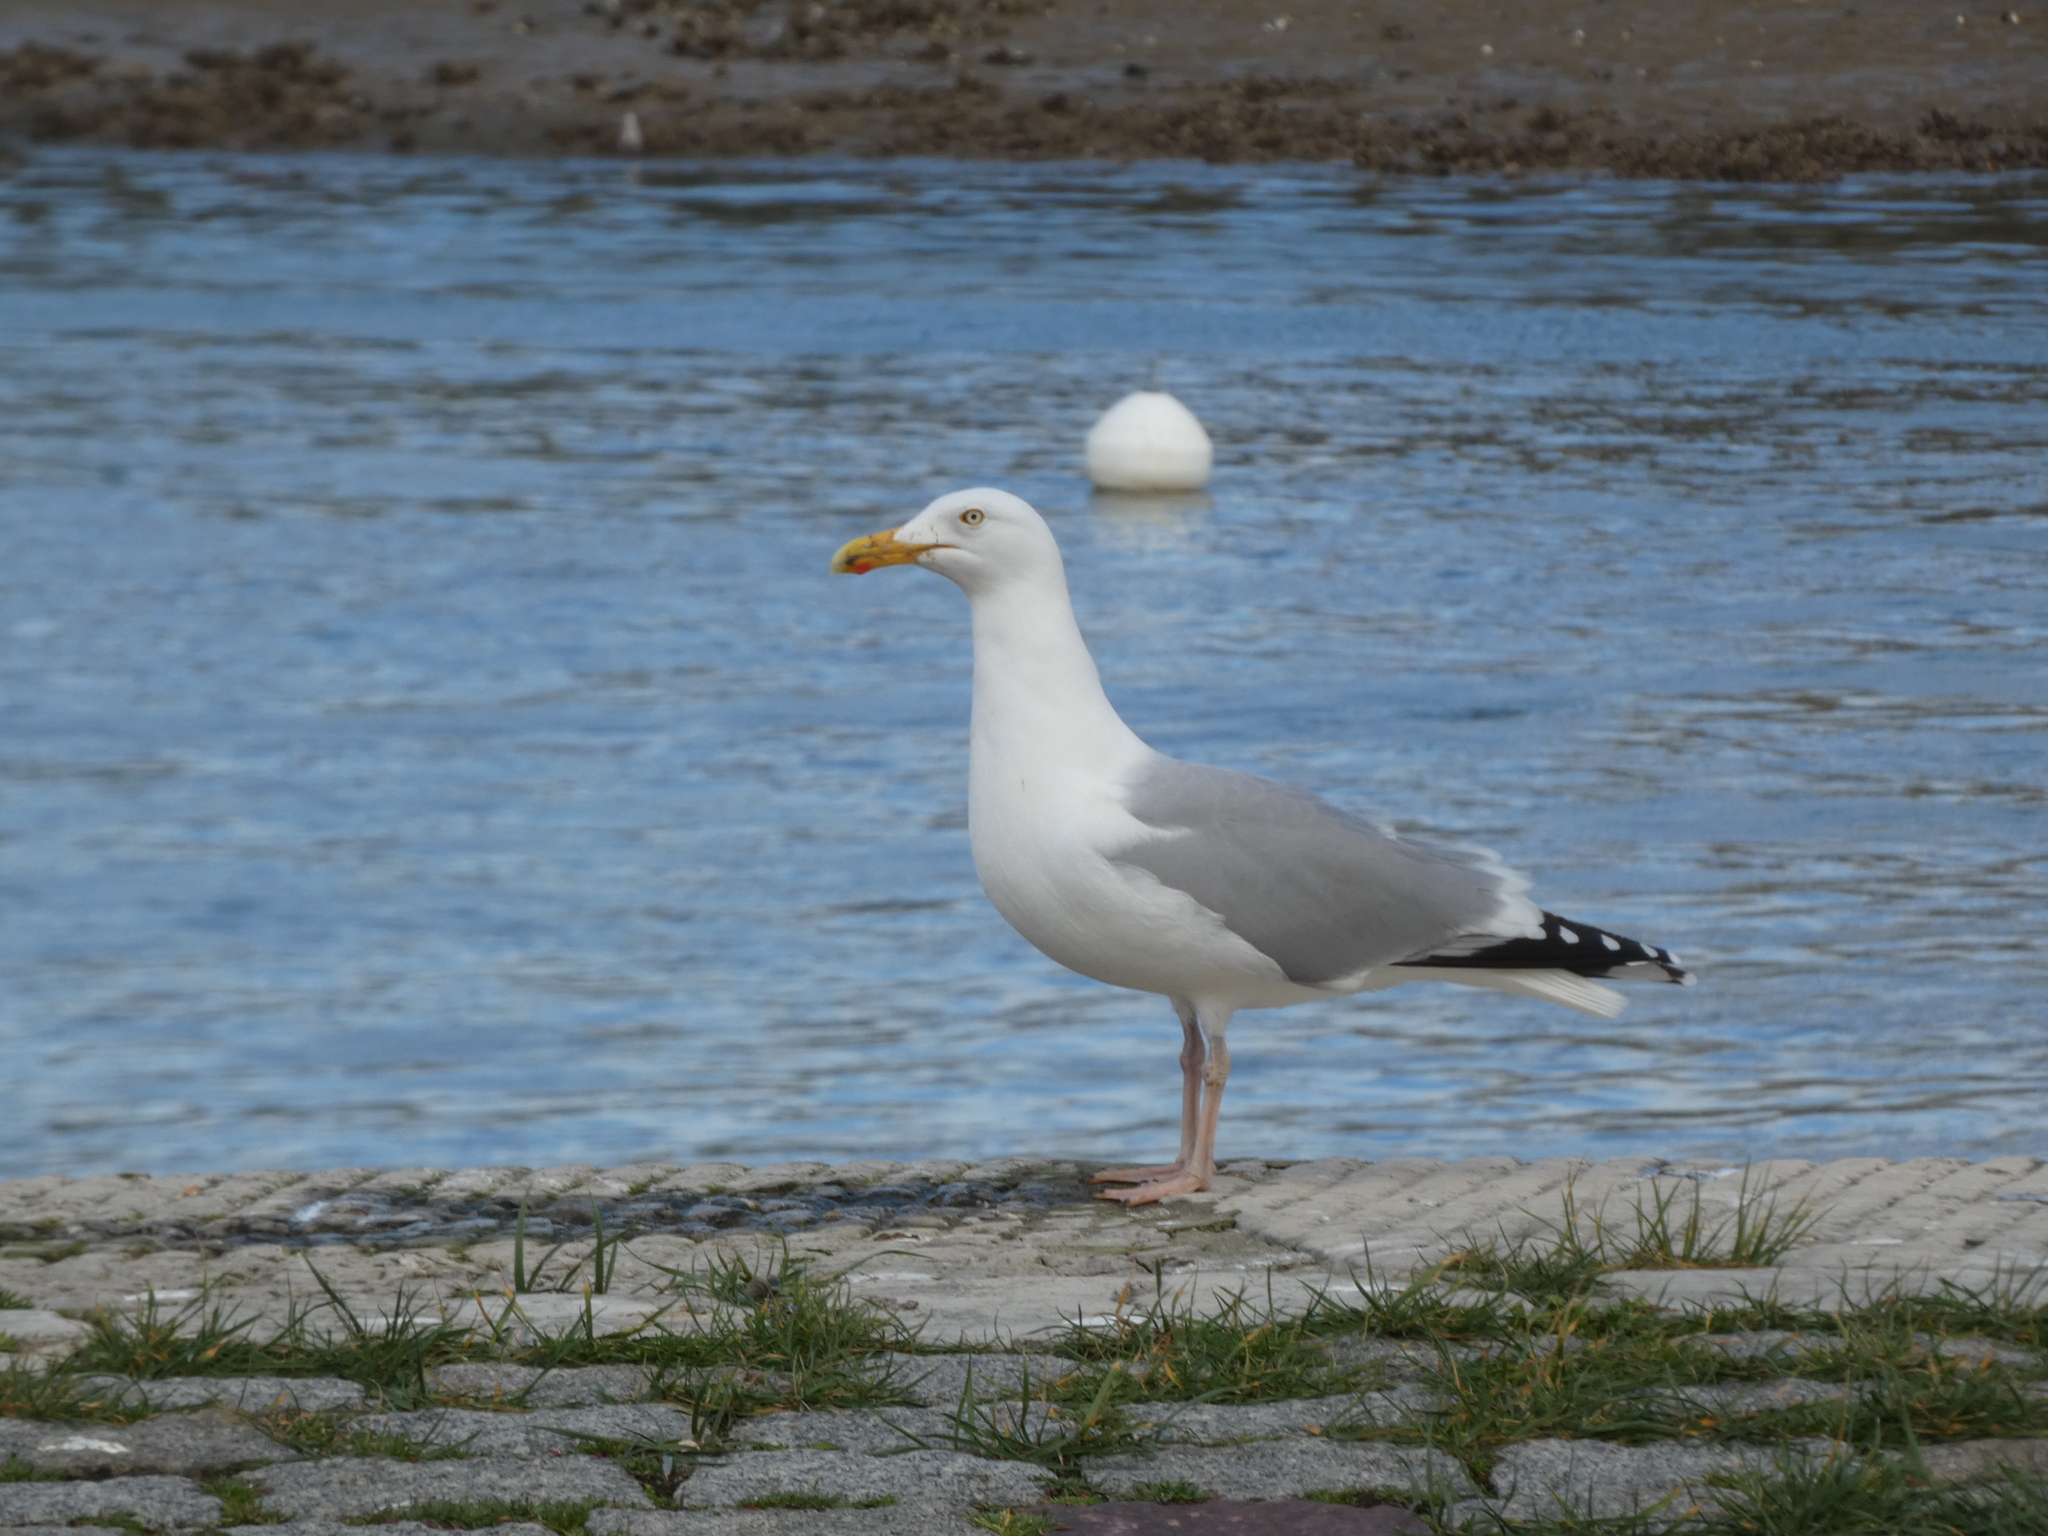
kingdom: Animalia
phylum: Chordata
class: Aves
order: Charadriiformes
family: Laridae
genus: Larus
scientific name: Larus argentatus
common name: Herring gull
